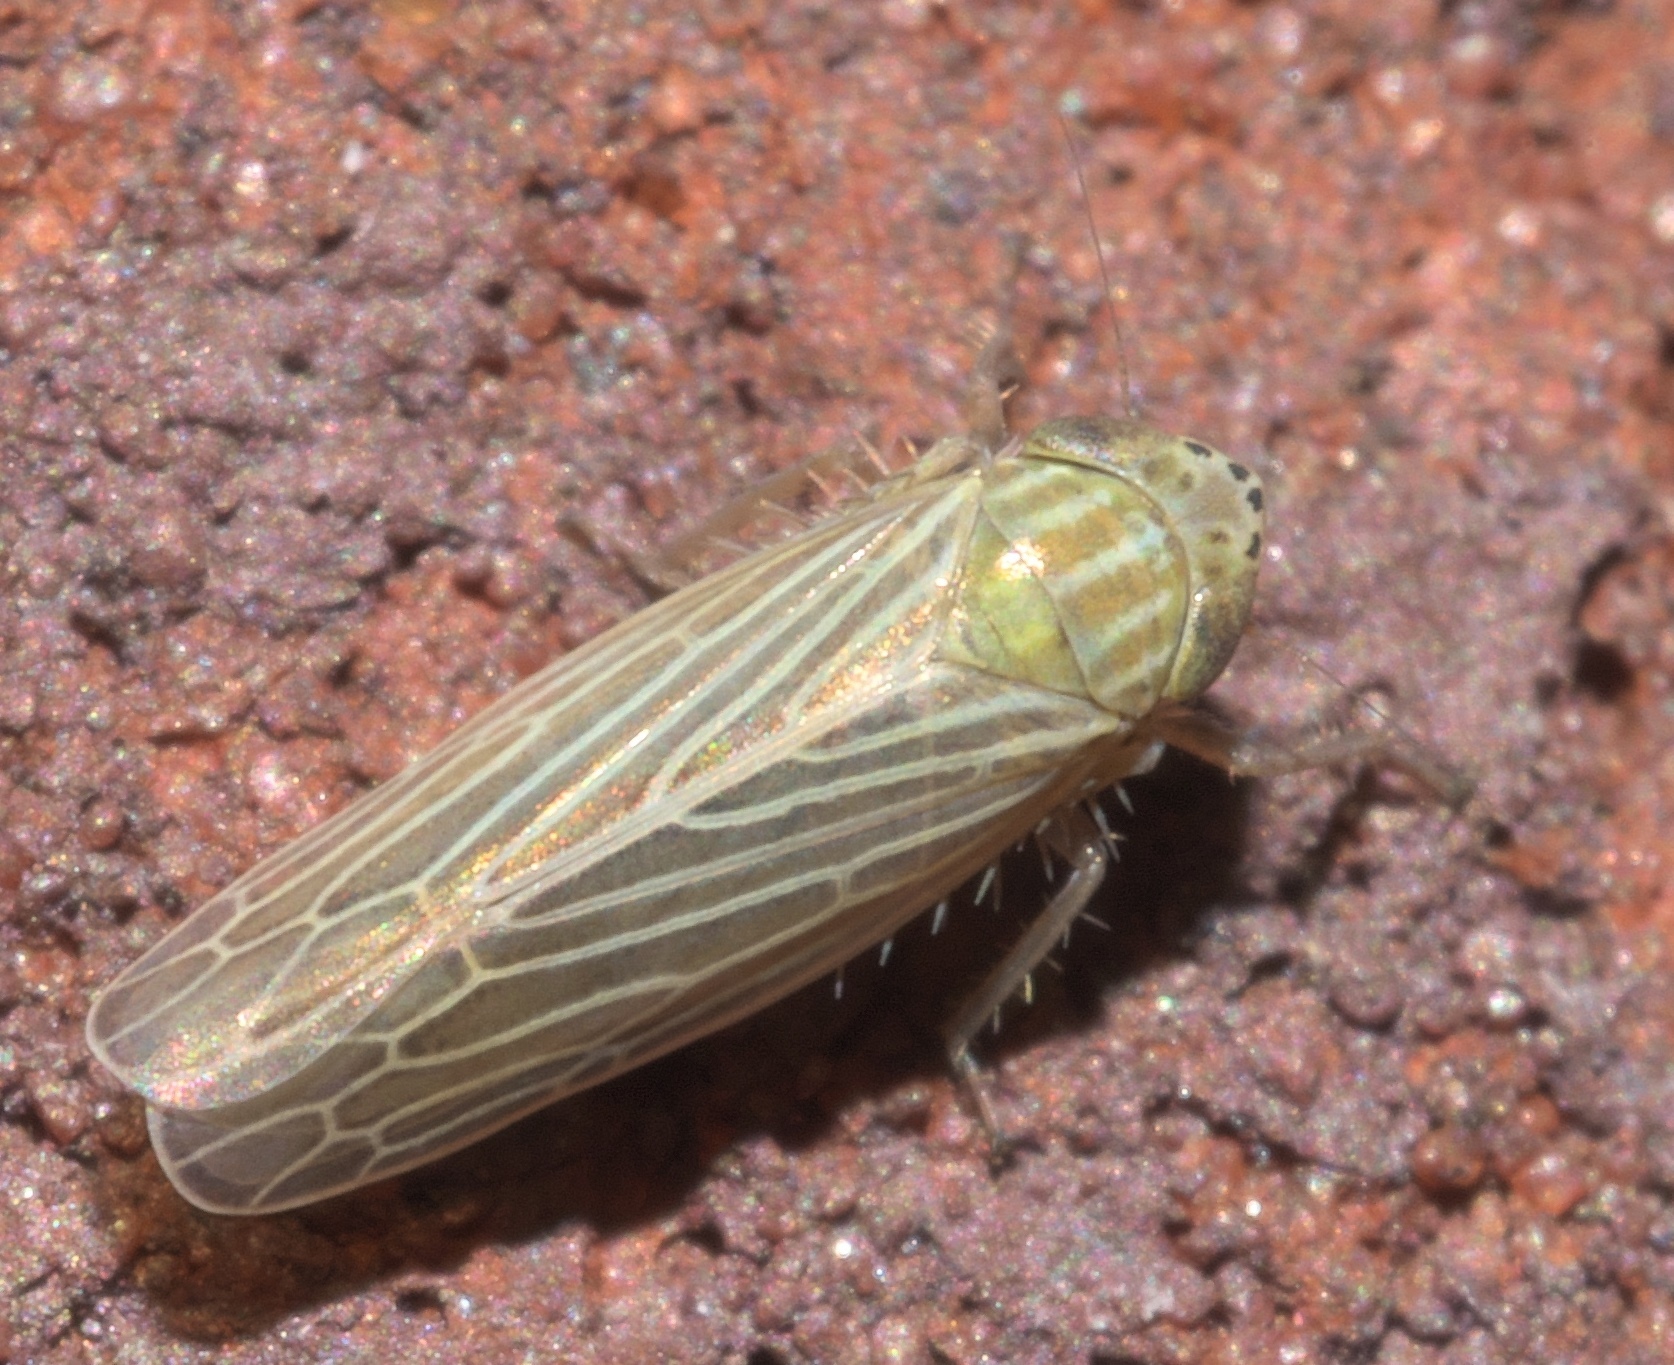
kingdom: Animalia
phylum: Arthropoda
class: Insecta
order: Hemiptera
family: Cicadellidae
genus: Graminella
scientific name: Graminella fitchii
